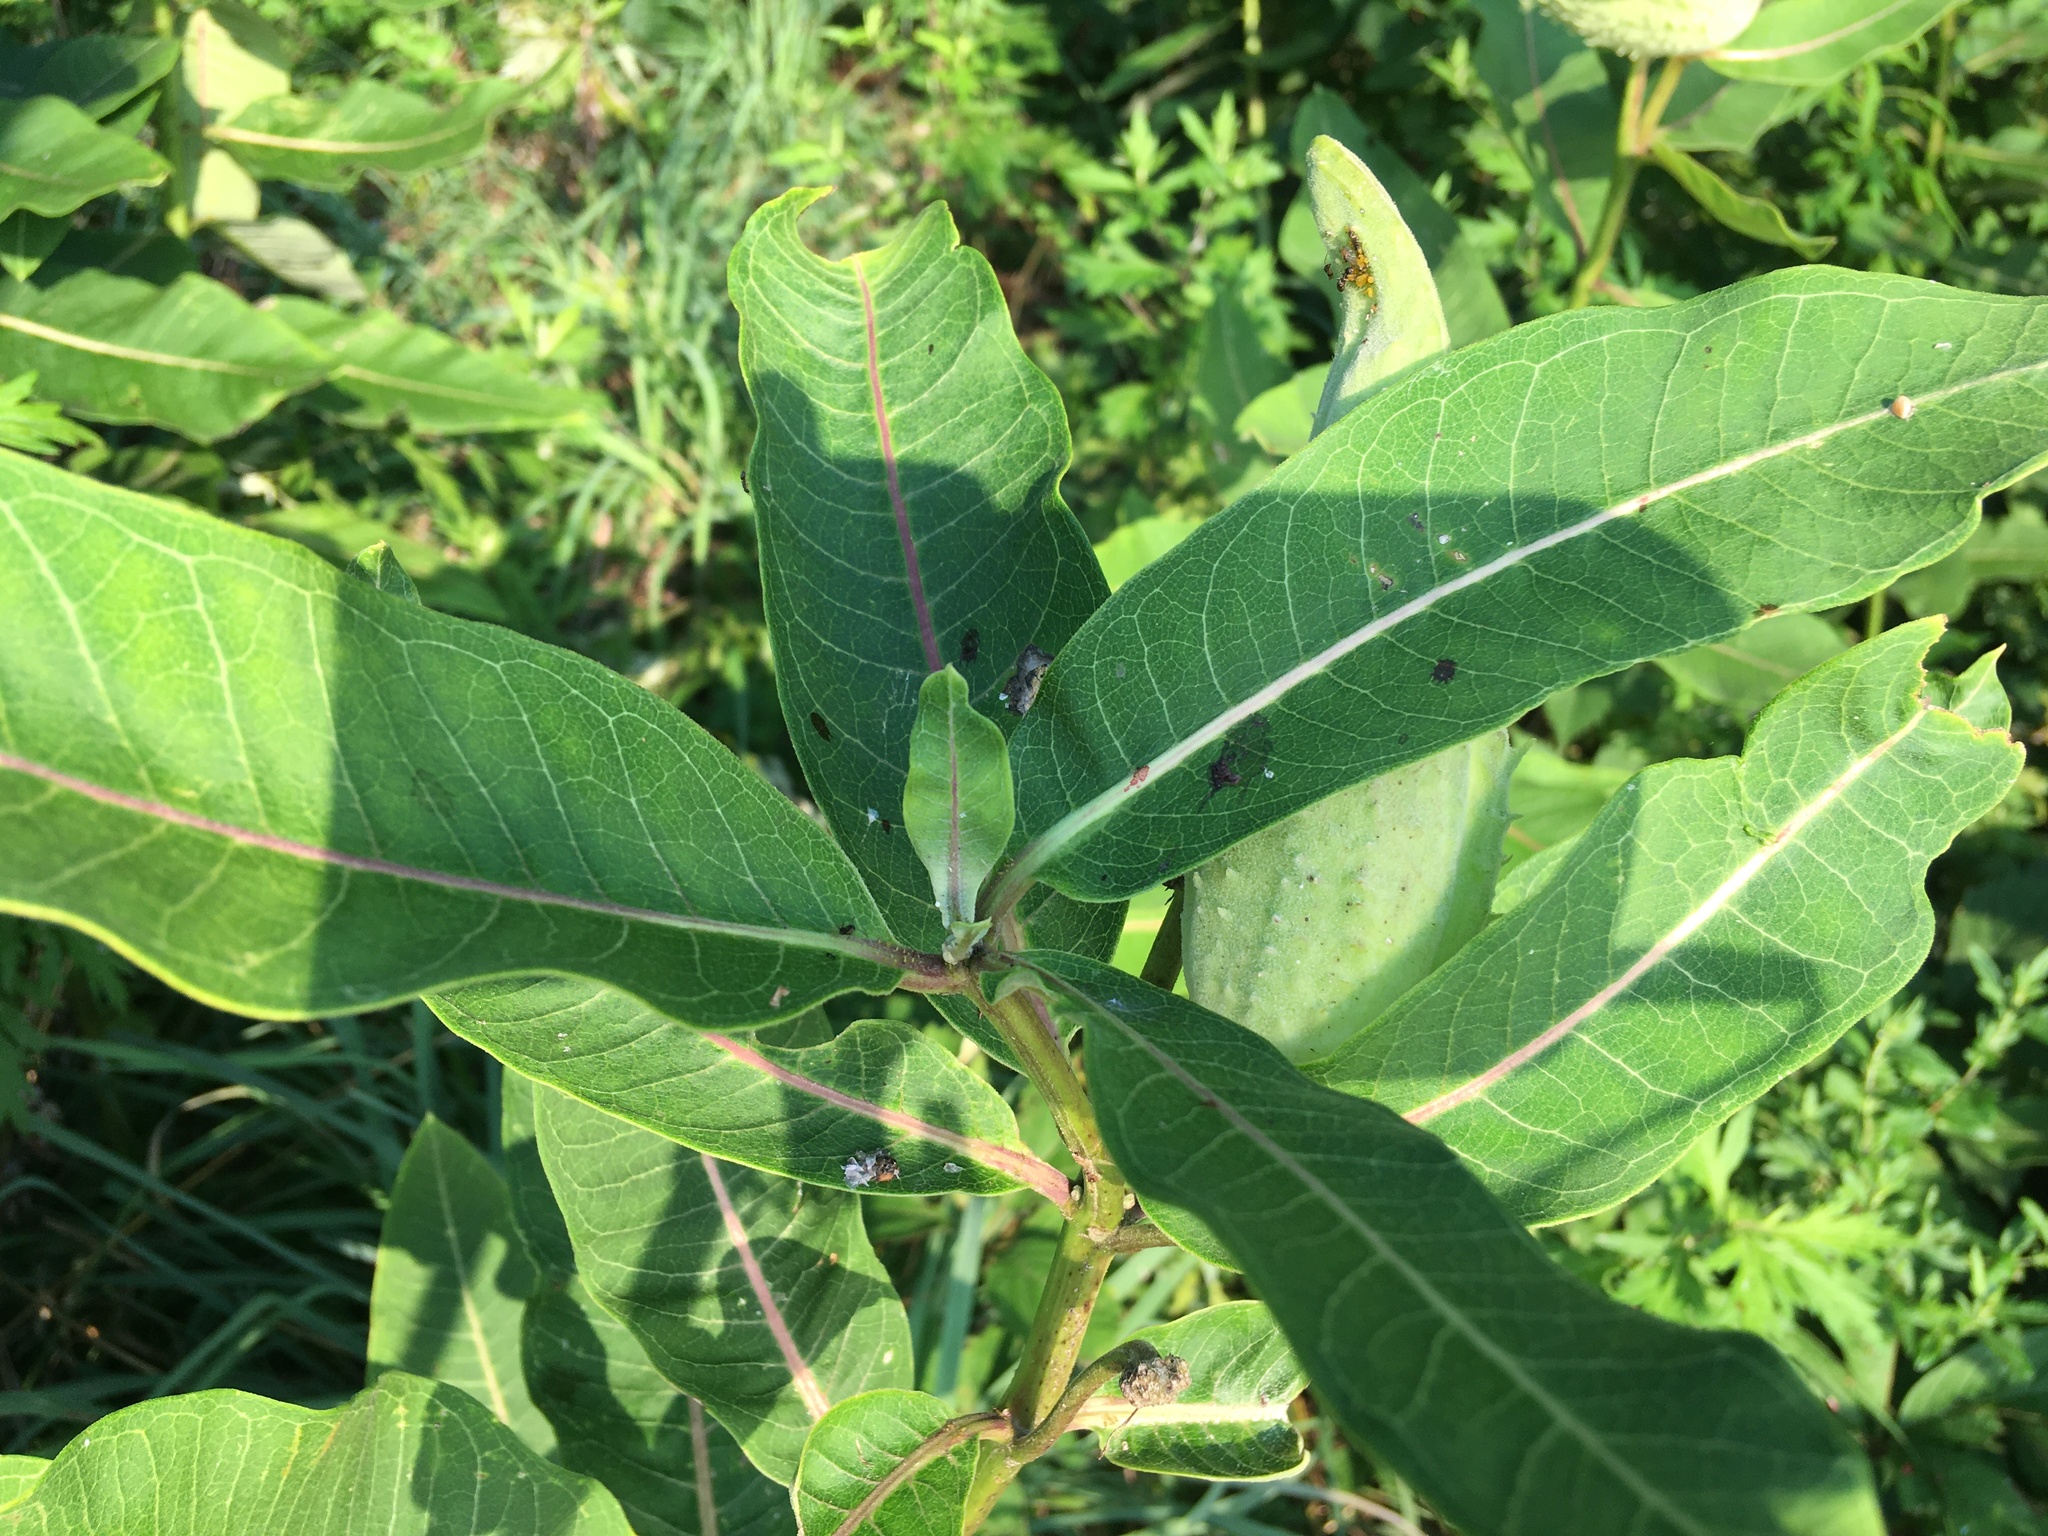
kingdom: Plantae
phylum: Tracheophyta
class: Magnoliopsida
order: Gentianales
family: Apocynaceae
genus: Asclepias
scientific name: Asclepias syriaca
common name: Common milkweed
